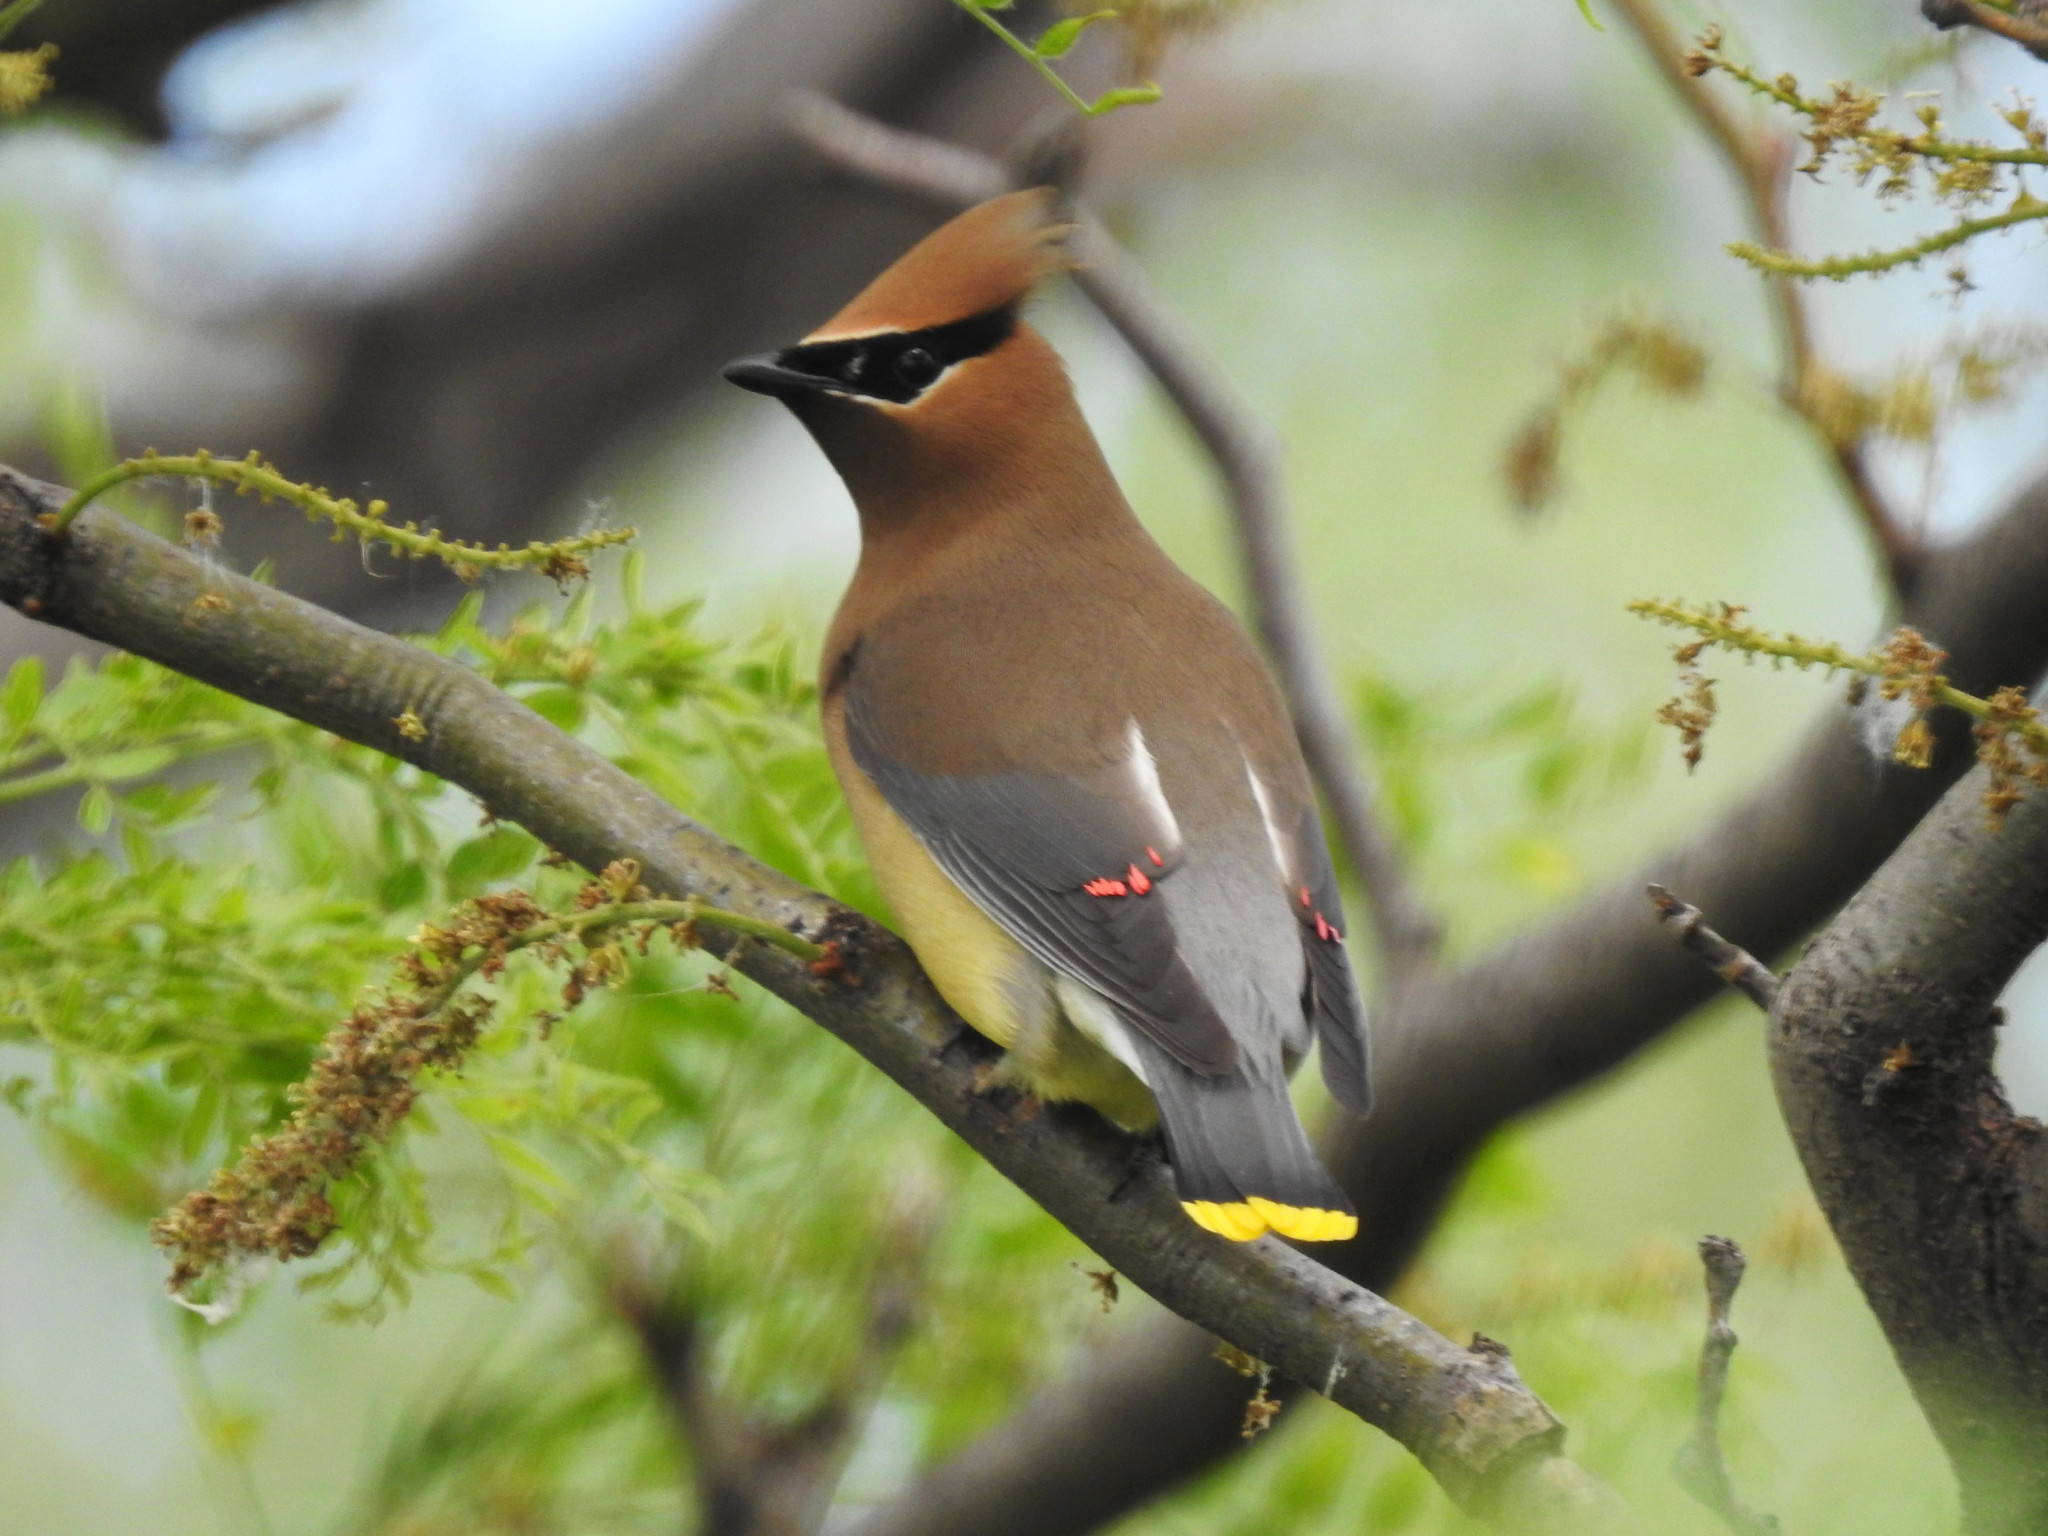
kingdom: Animalia
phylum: Chordata
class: Aves
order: Passeriformes
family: Bombycillidae
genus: Bombycilla
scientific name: Bombycilla cedrorum
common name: Cedar waxwing
